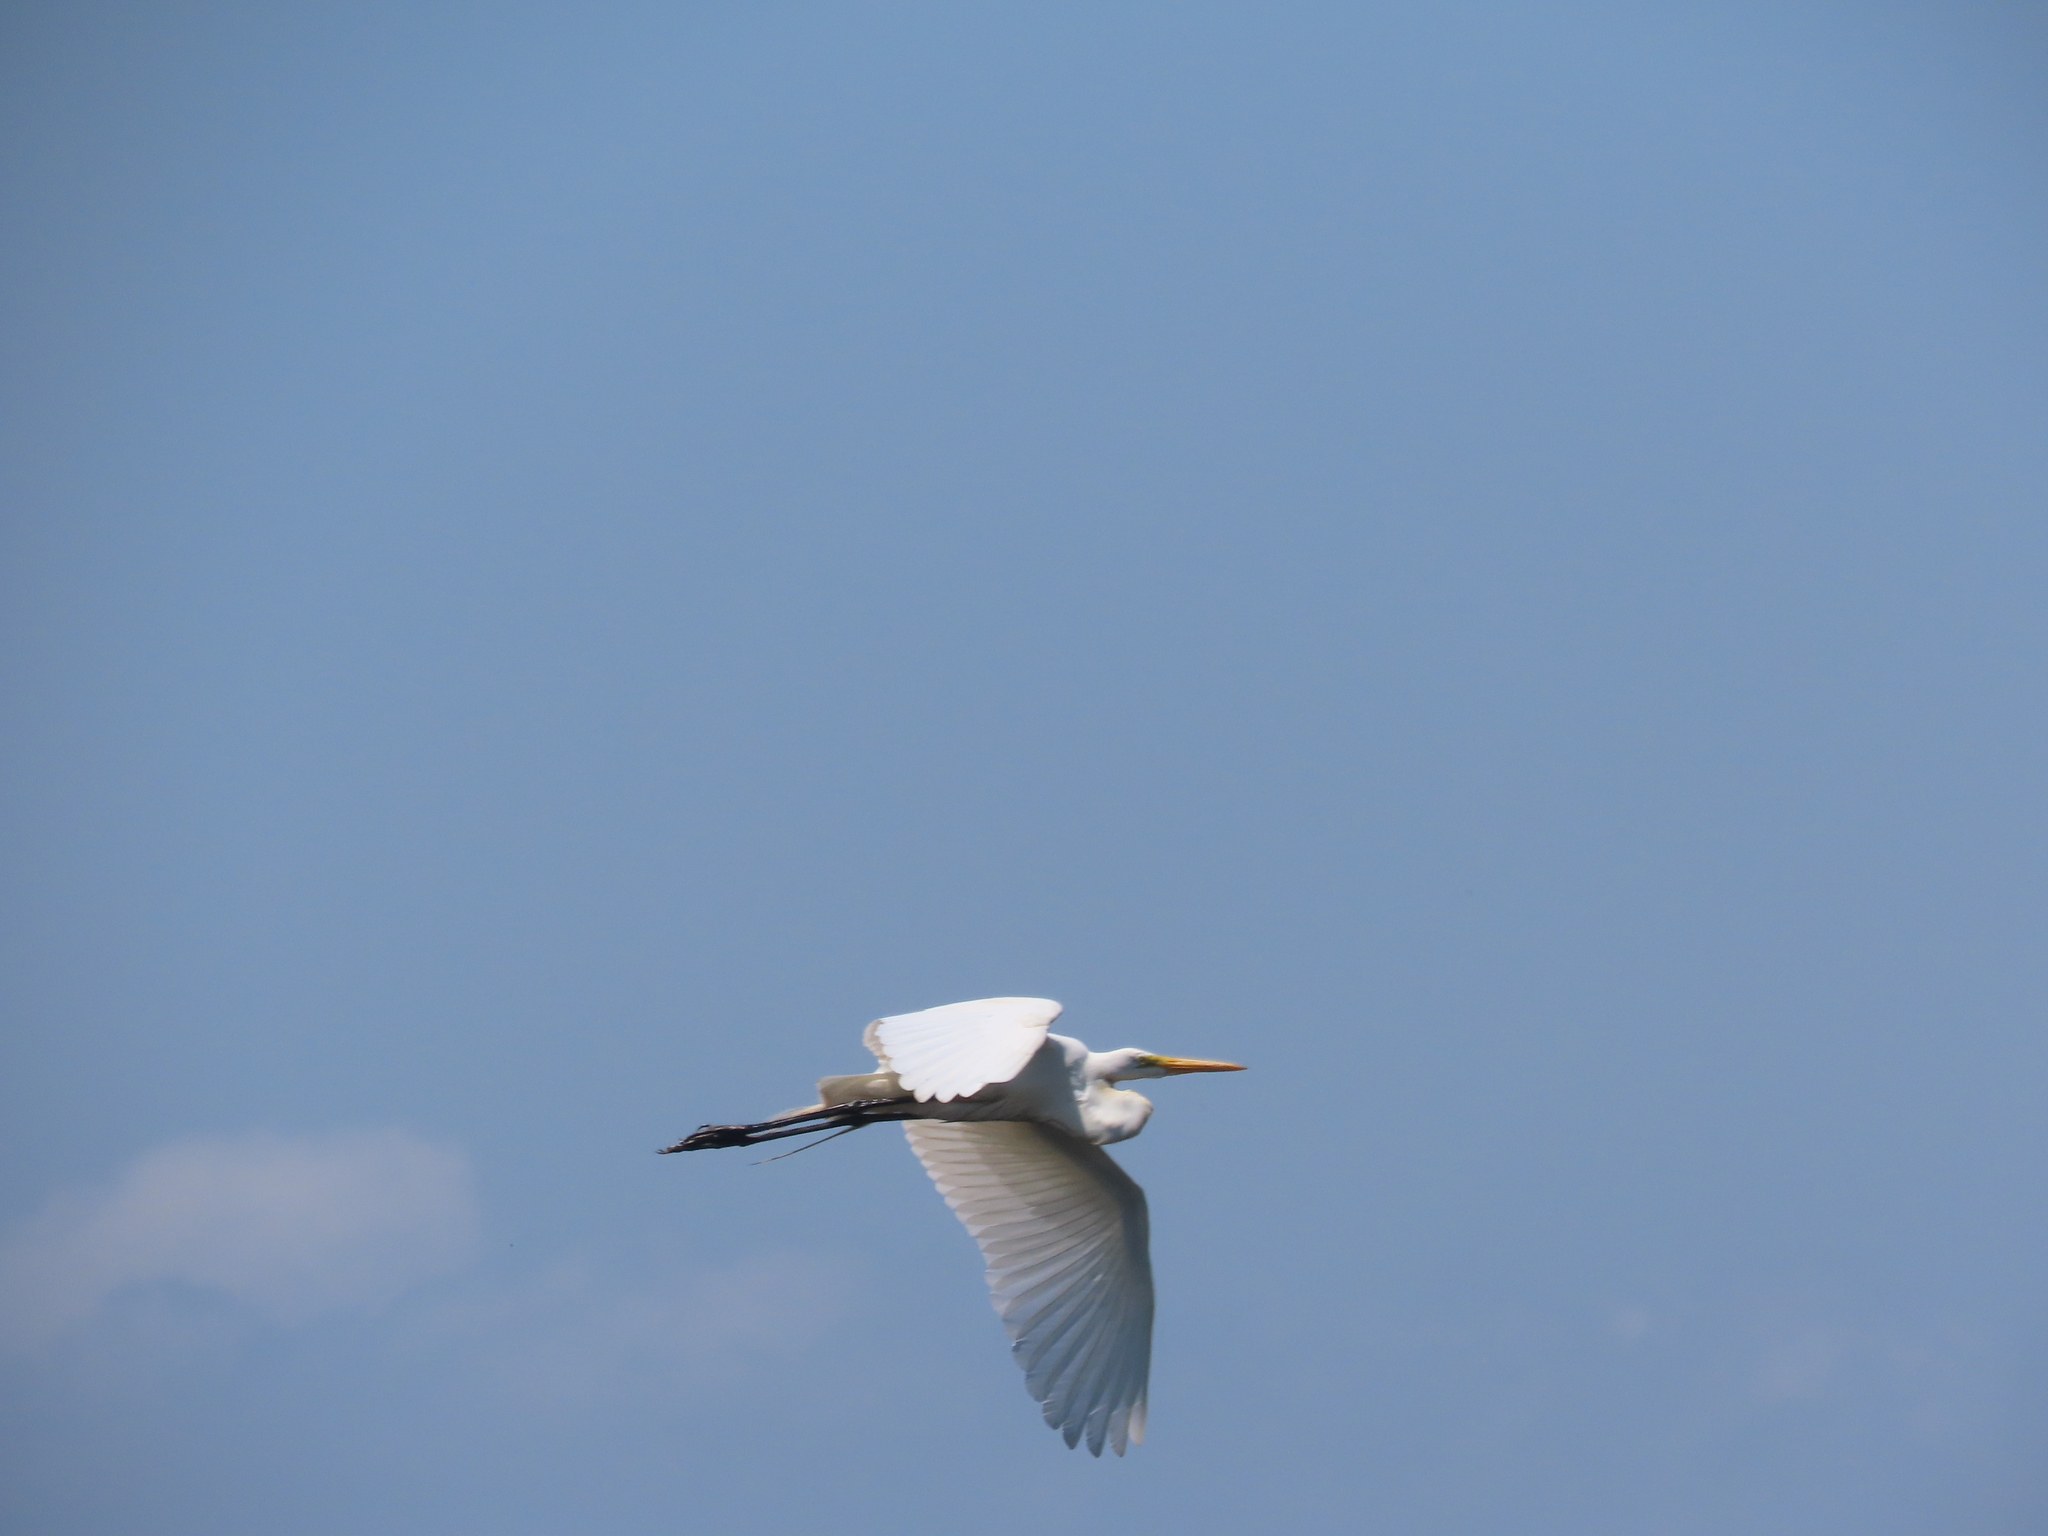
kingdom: Animalia
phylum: Chordata
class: Aves
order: Pelecaniformes
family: Ardeidae
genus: Ardea
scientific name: Ardea alba
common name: Great egret
